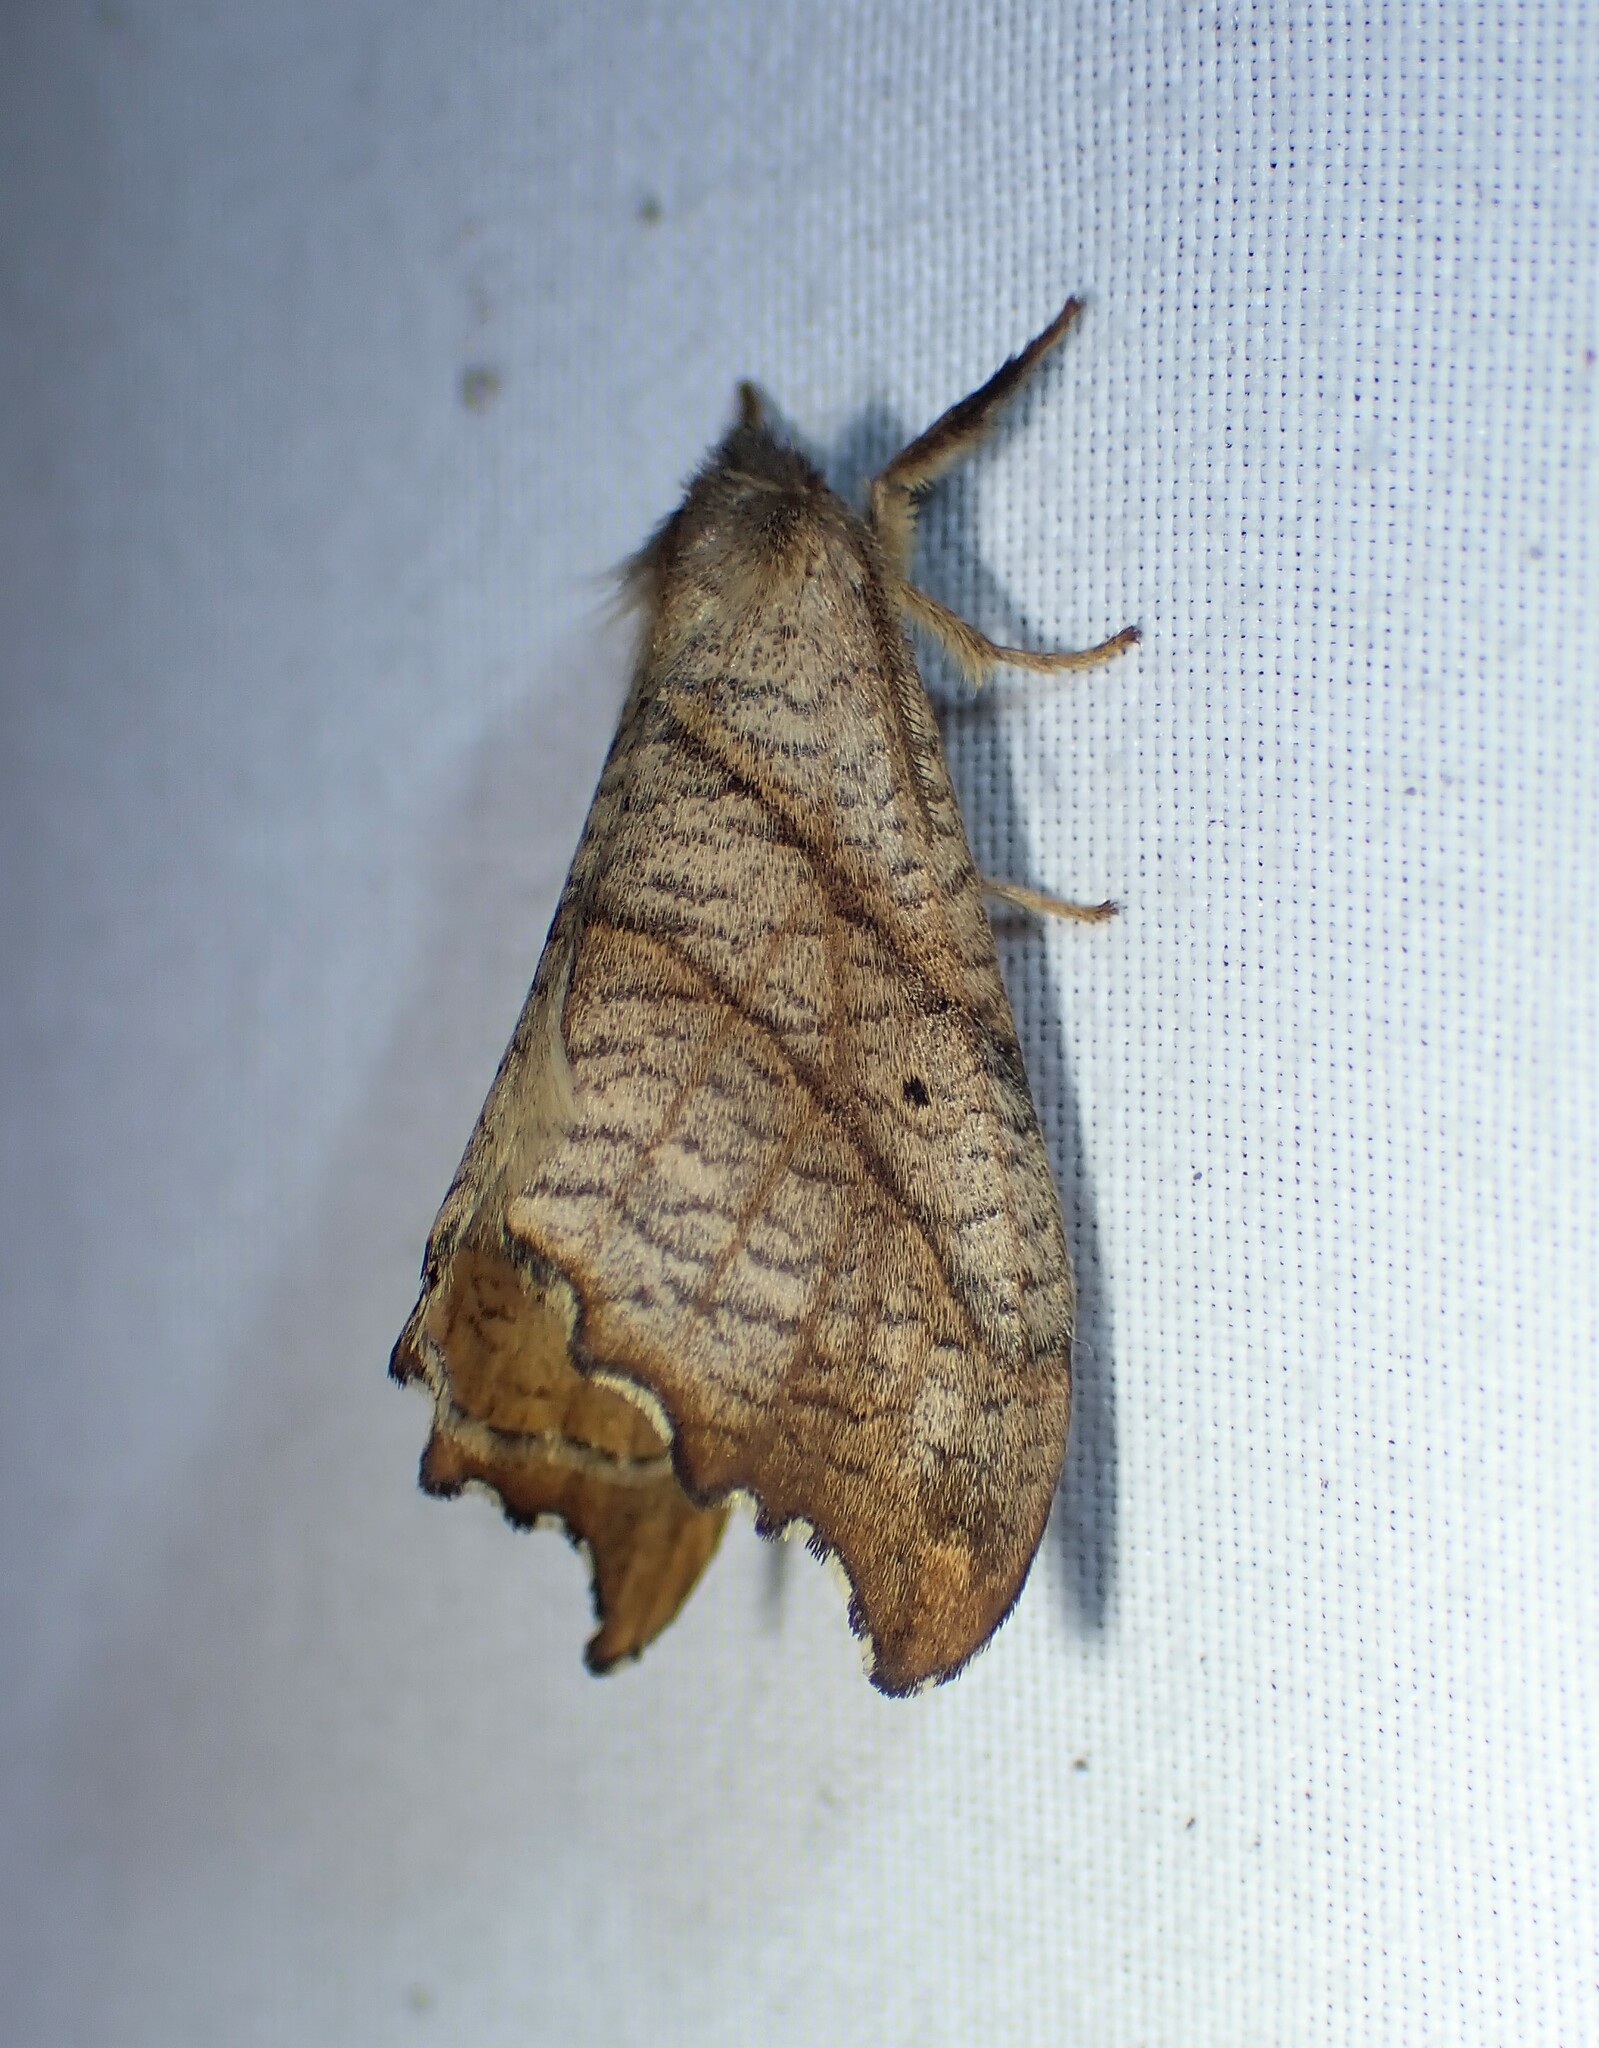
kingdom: Animalia
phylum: Arthropoda
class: Insecta
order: Lepidoptera
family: Drepanidae
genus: Falcaria
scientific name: Falcaria bilineata
